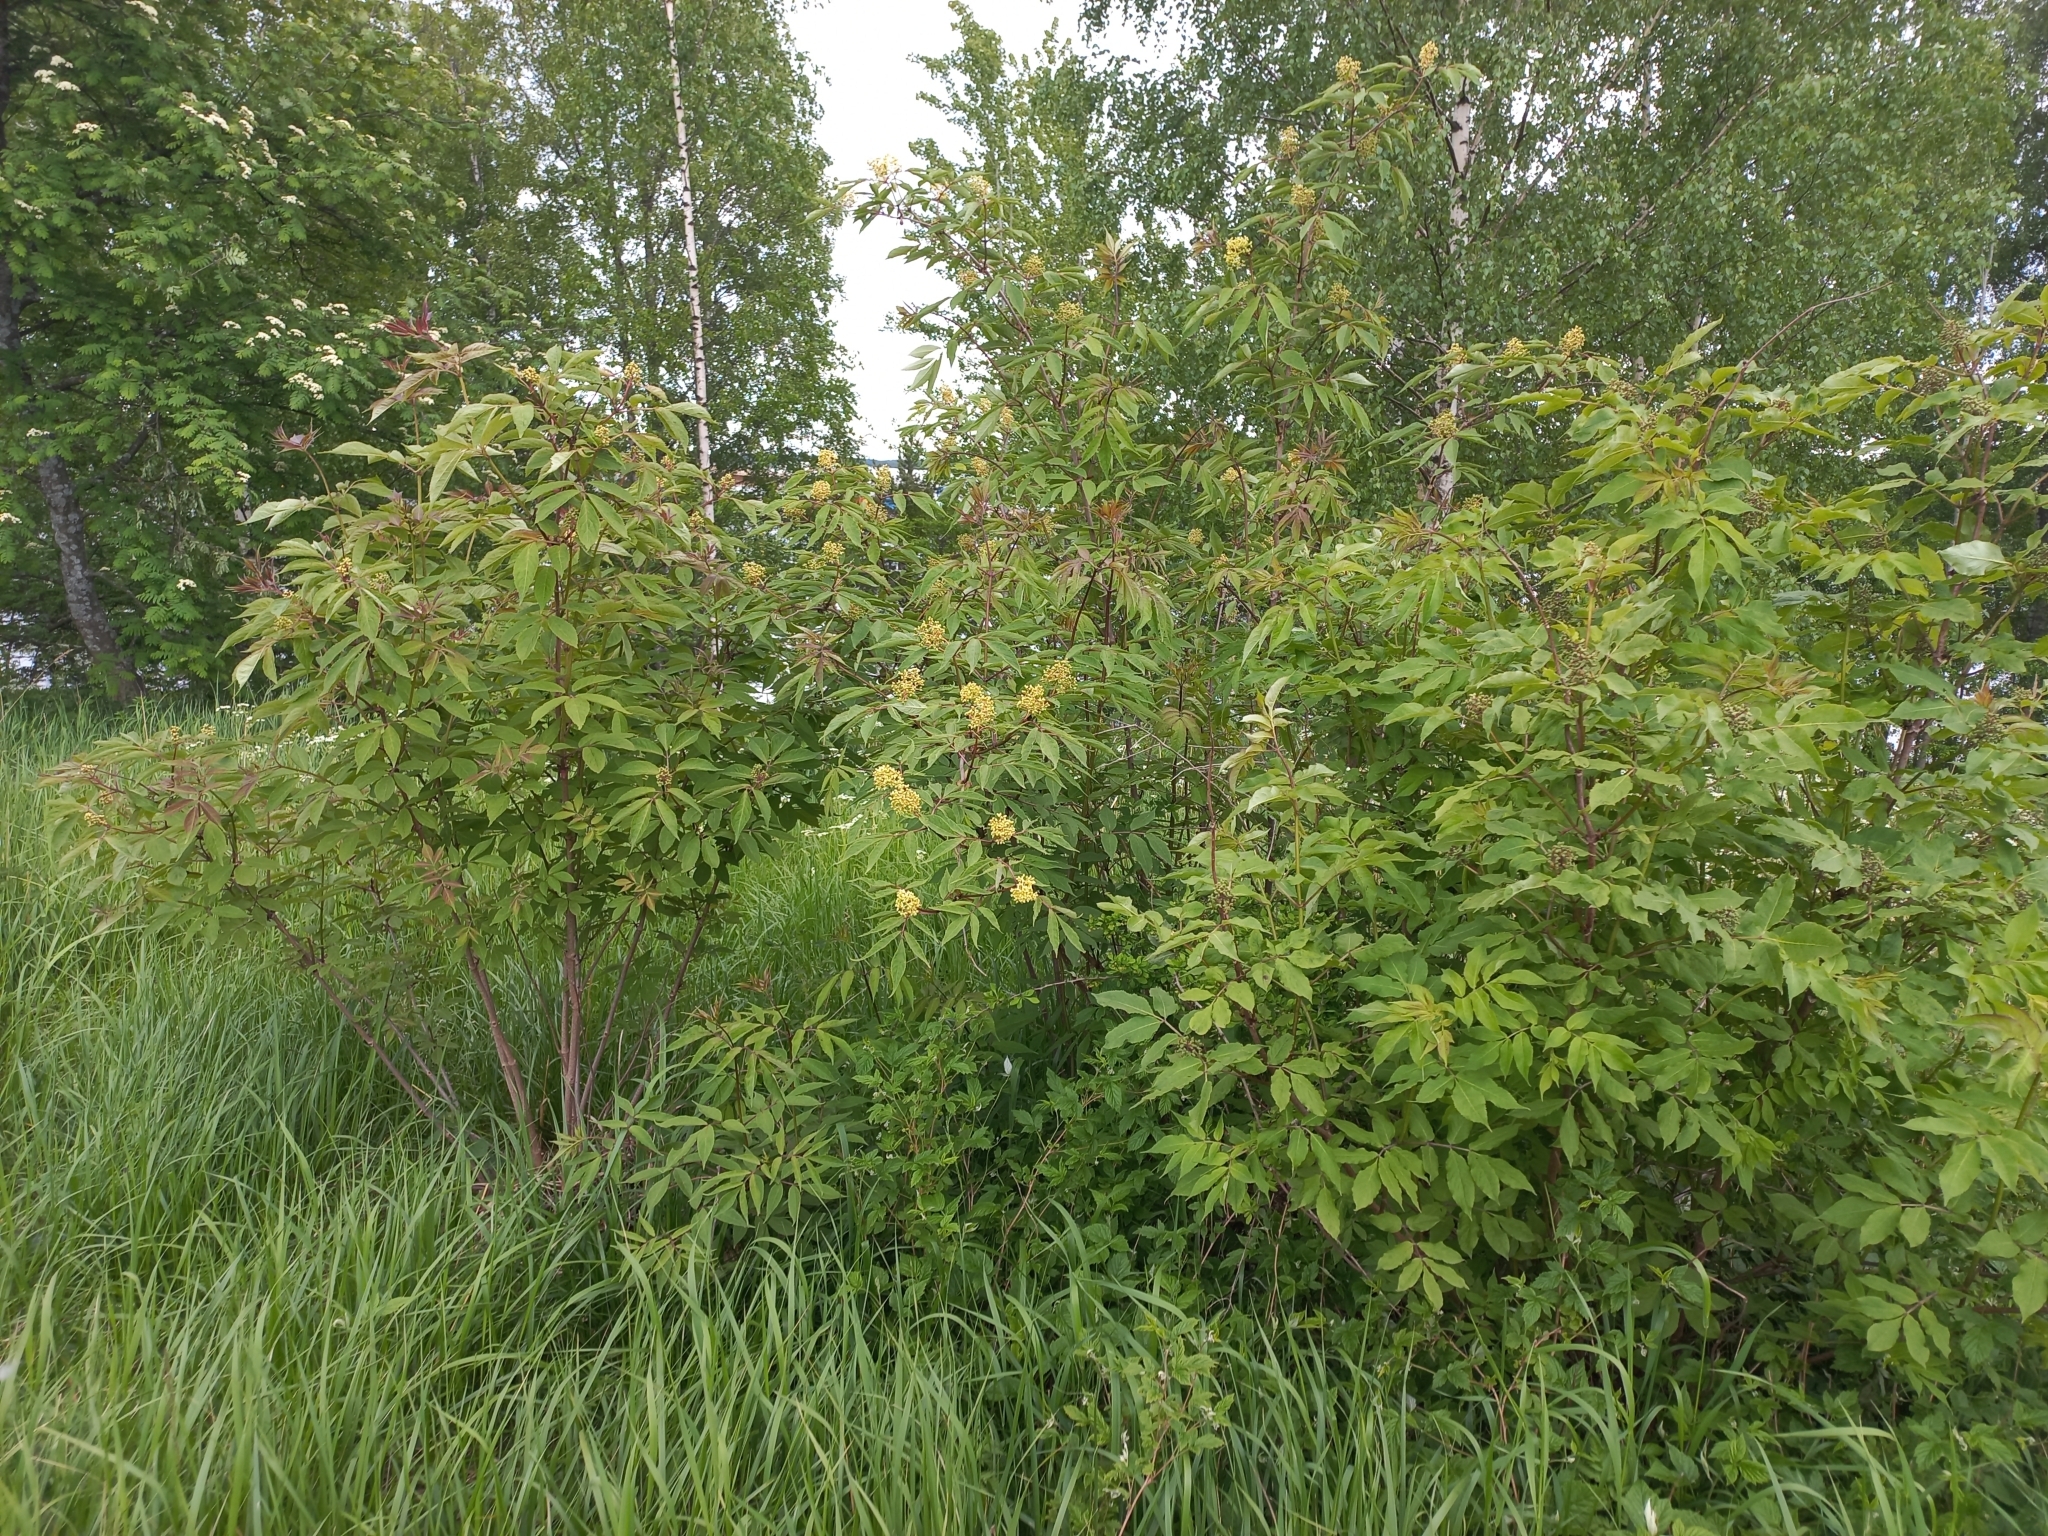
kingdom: Plantae
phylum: Tracheophyta
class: Magnoliopsida
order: Dipsacales
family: Viburnaceae
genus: Sambucus
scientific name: Sambucus racemosa
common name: Red-berried elder
